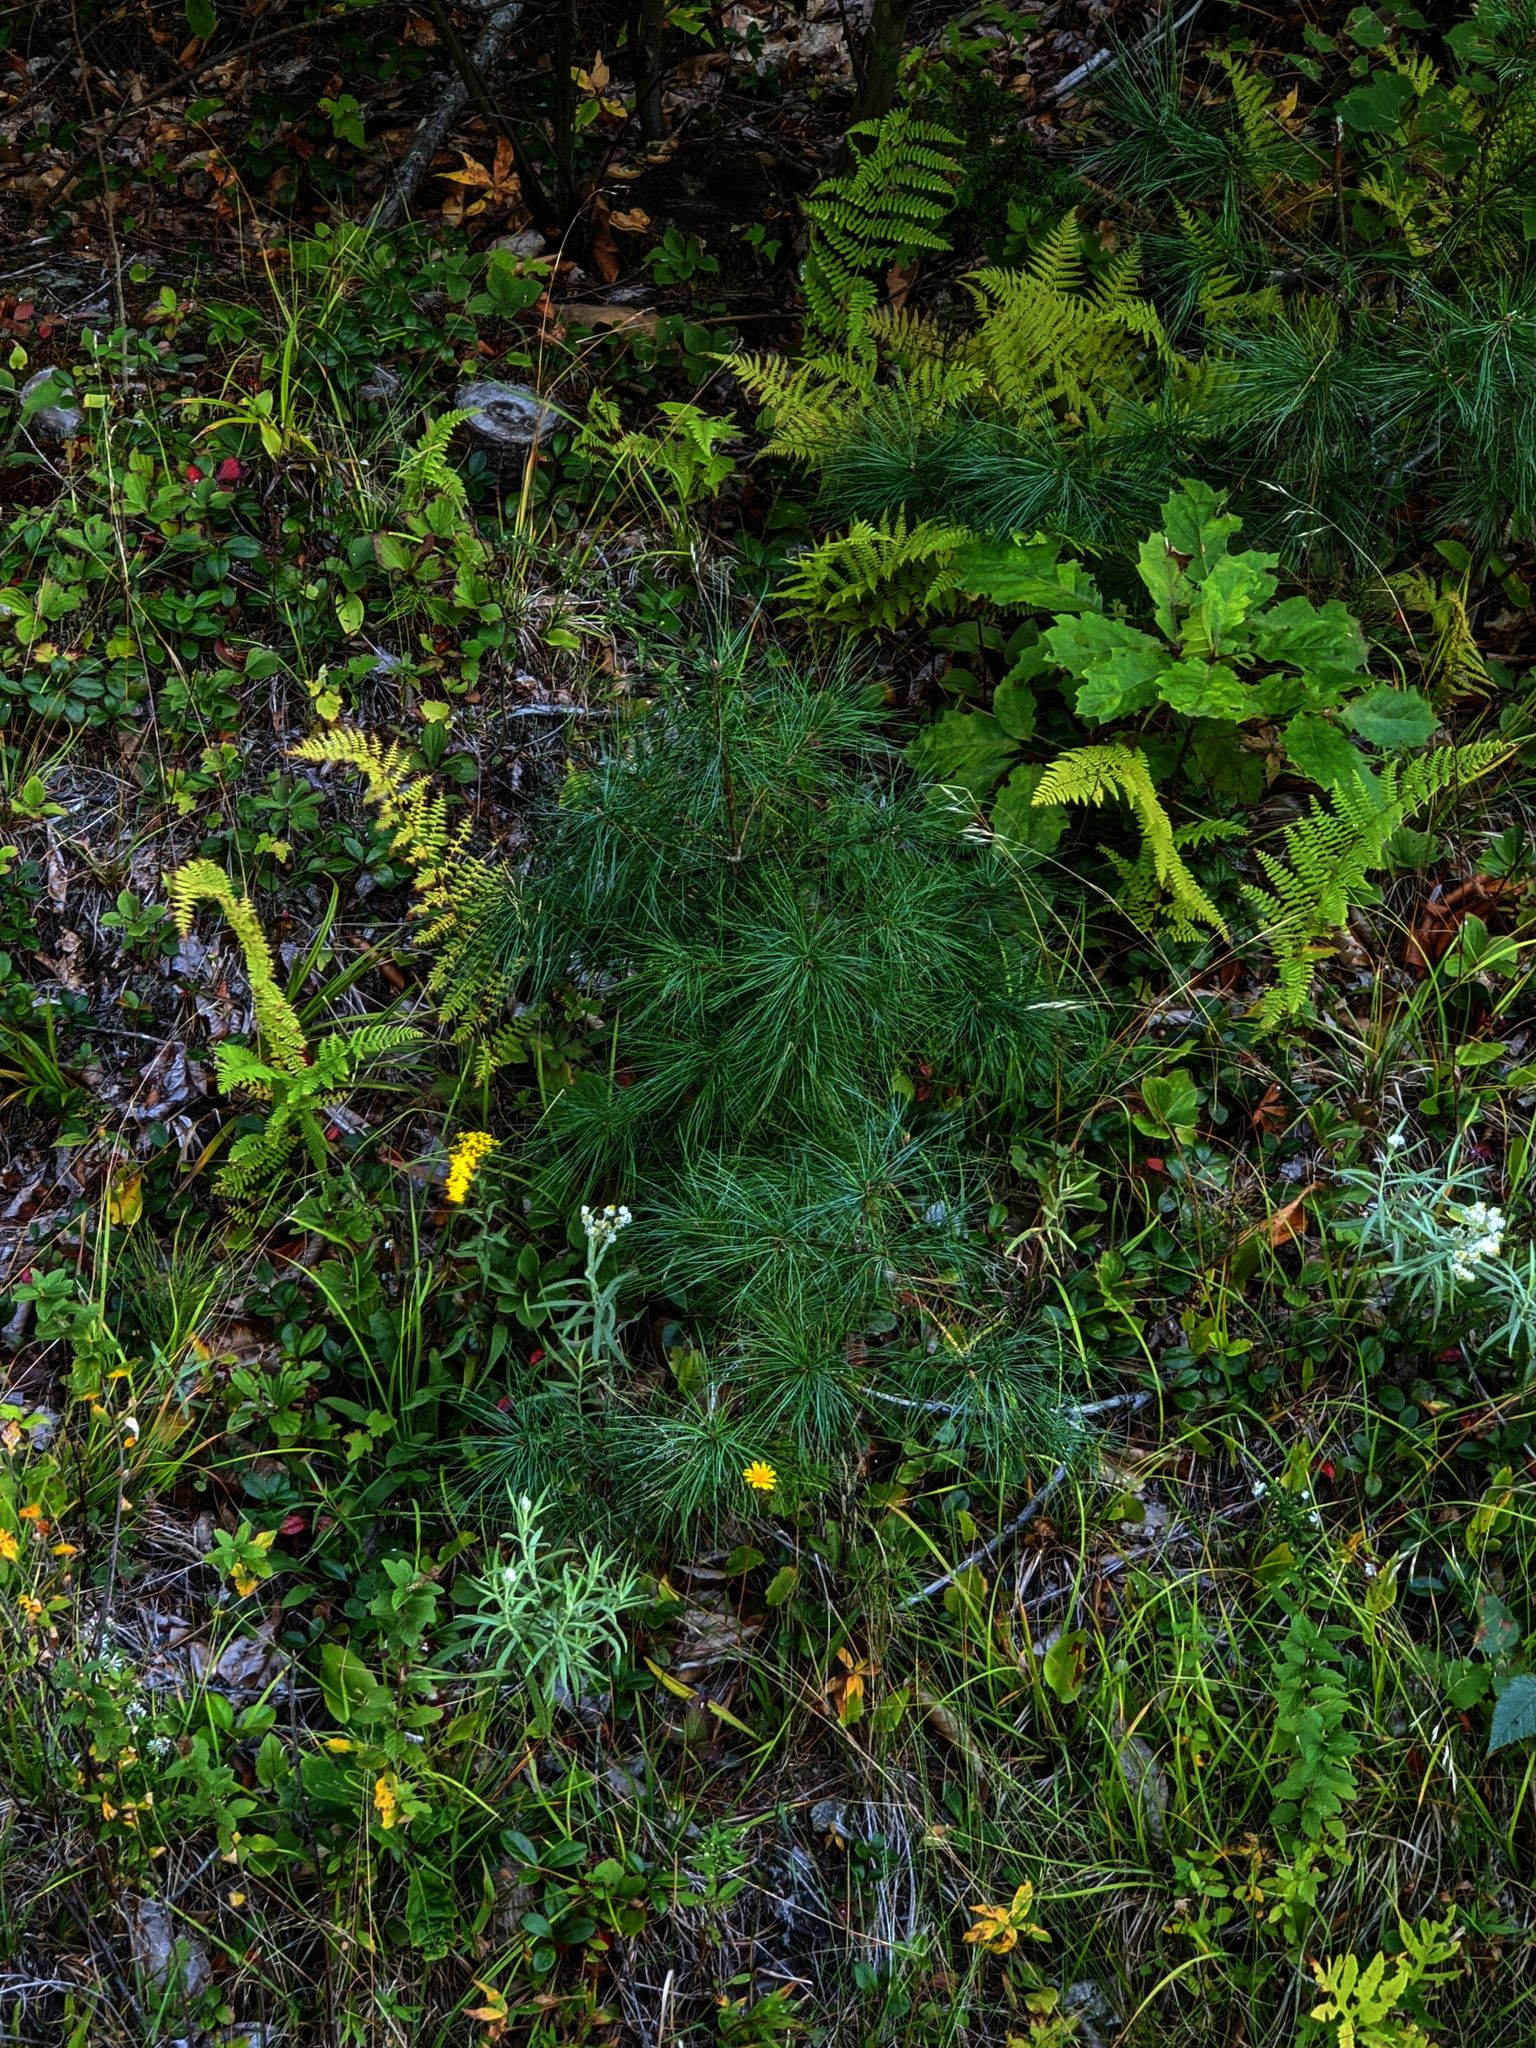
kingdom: Plantae
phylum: Tracheophyta
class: Pinopsida
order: Pinales
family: Pinaceae
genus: Pinus
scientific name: Pinus strobus
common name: Weymouth pine
